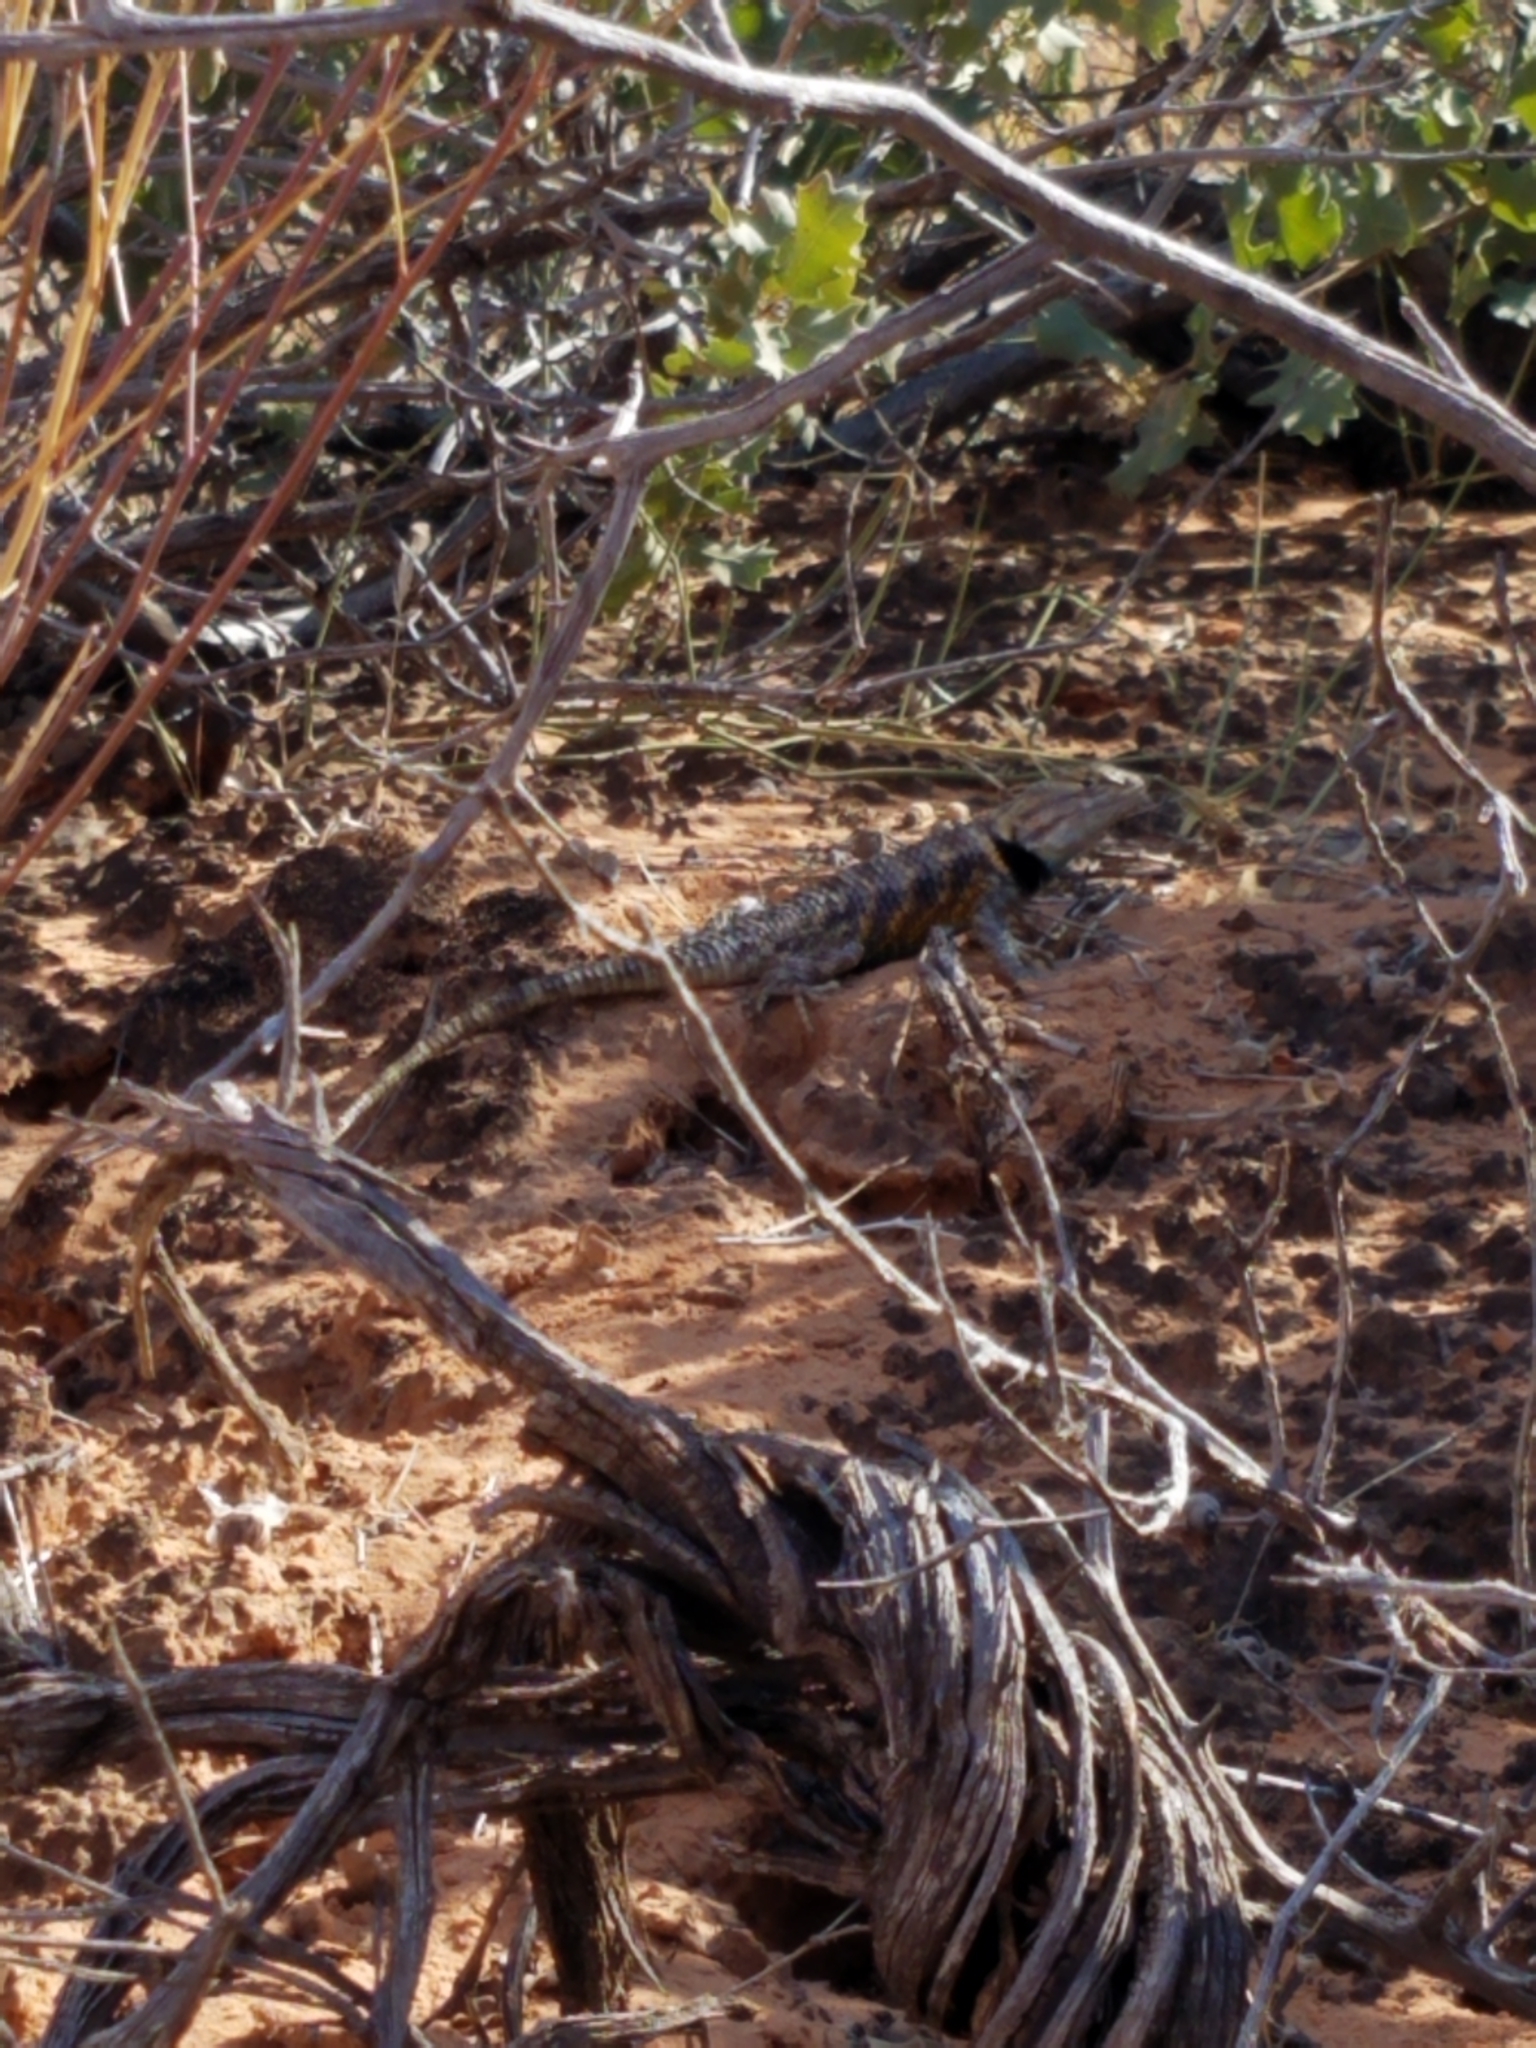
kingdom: Animalia
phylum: Chordata
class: Squamata
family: Phrynosomatidae
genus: Sceloporus
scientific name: Sceloporus magister
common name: Desert spiny lizard
